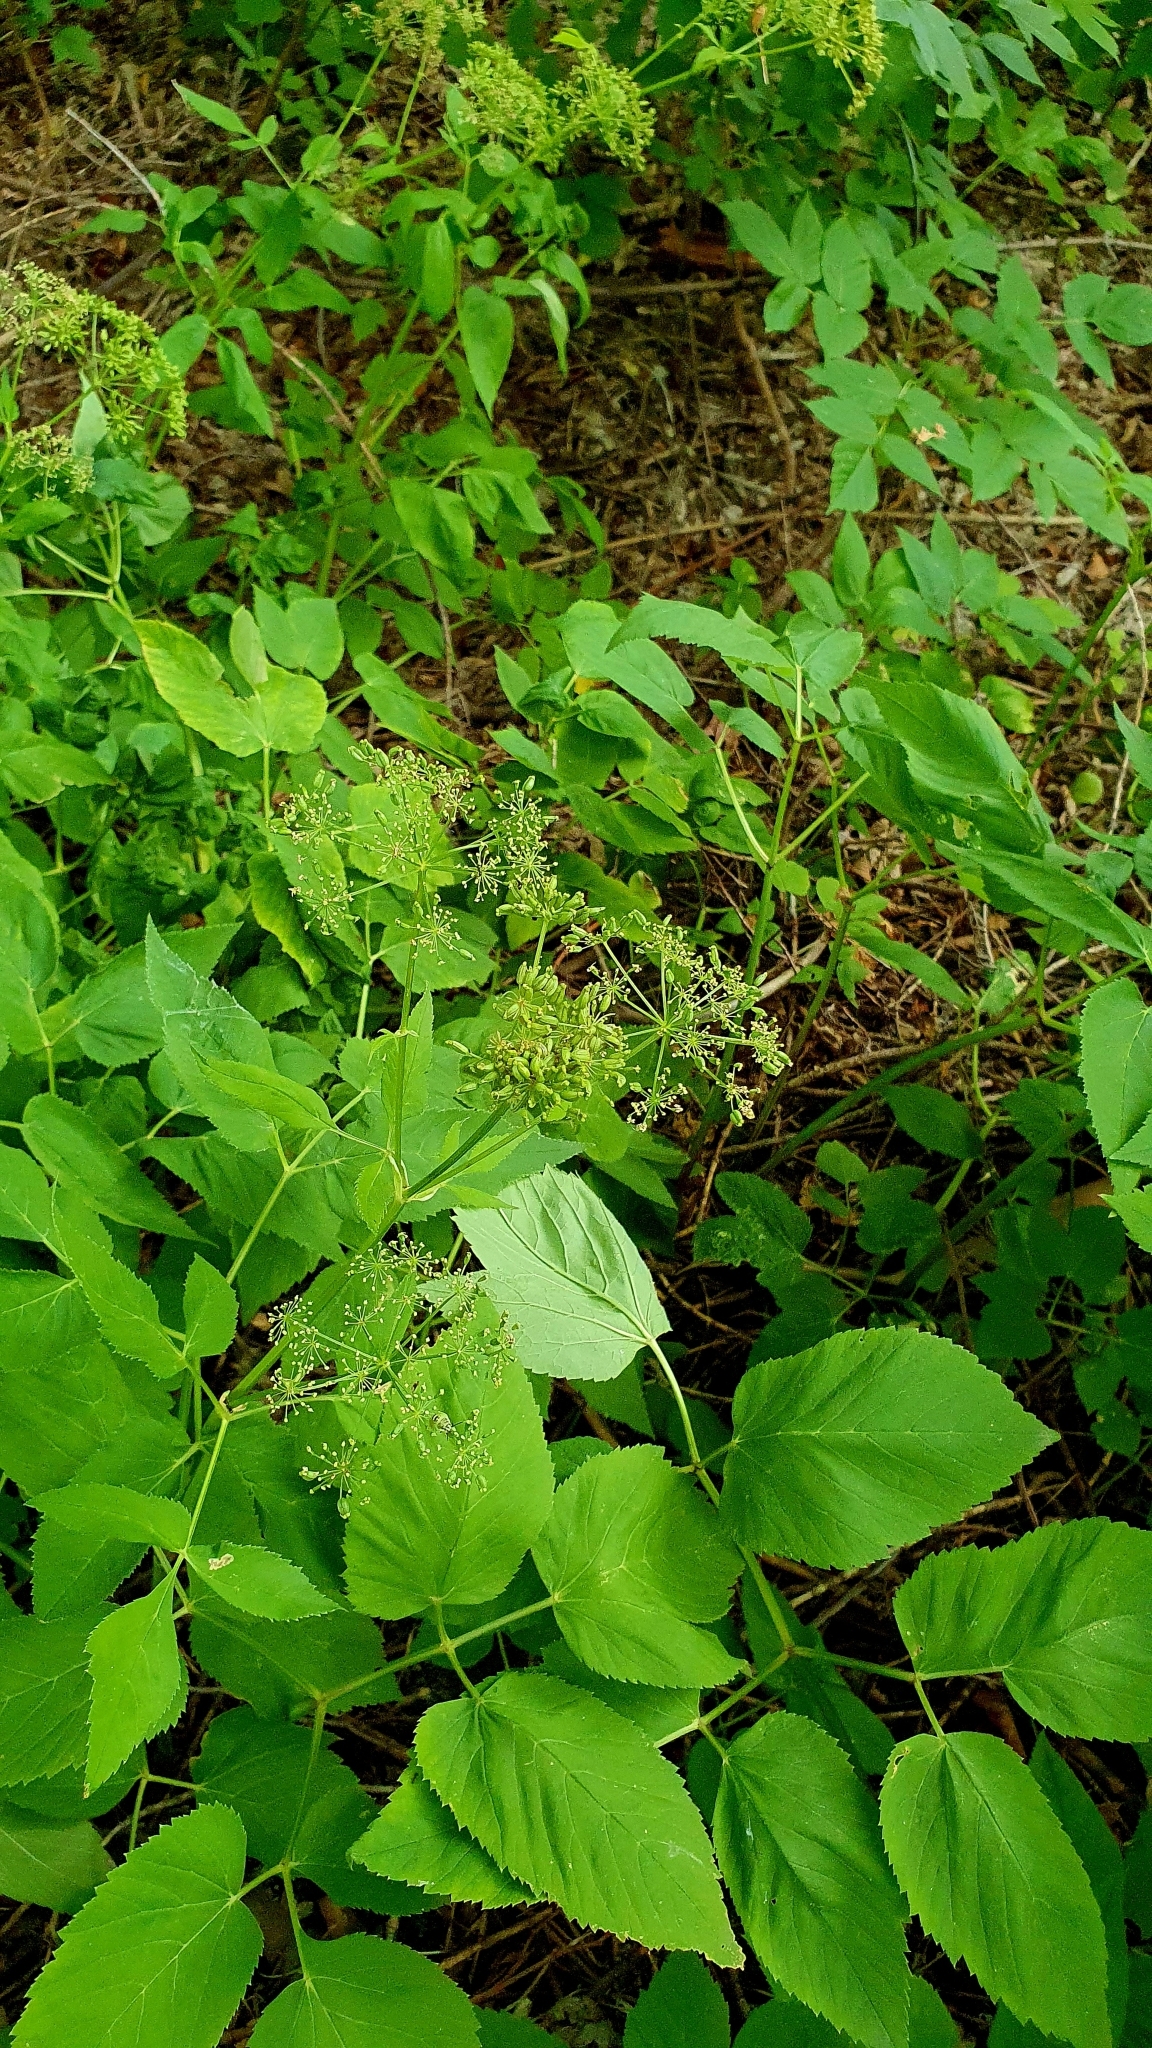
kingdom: Plantae
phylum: Tracheophyta
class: Magnoliopsida
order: Apiales
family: Apiaceae
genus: Aegopodium
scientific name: Aegopodium podagraria
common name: Ground-elder
